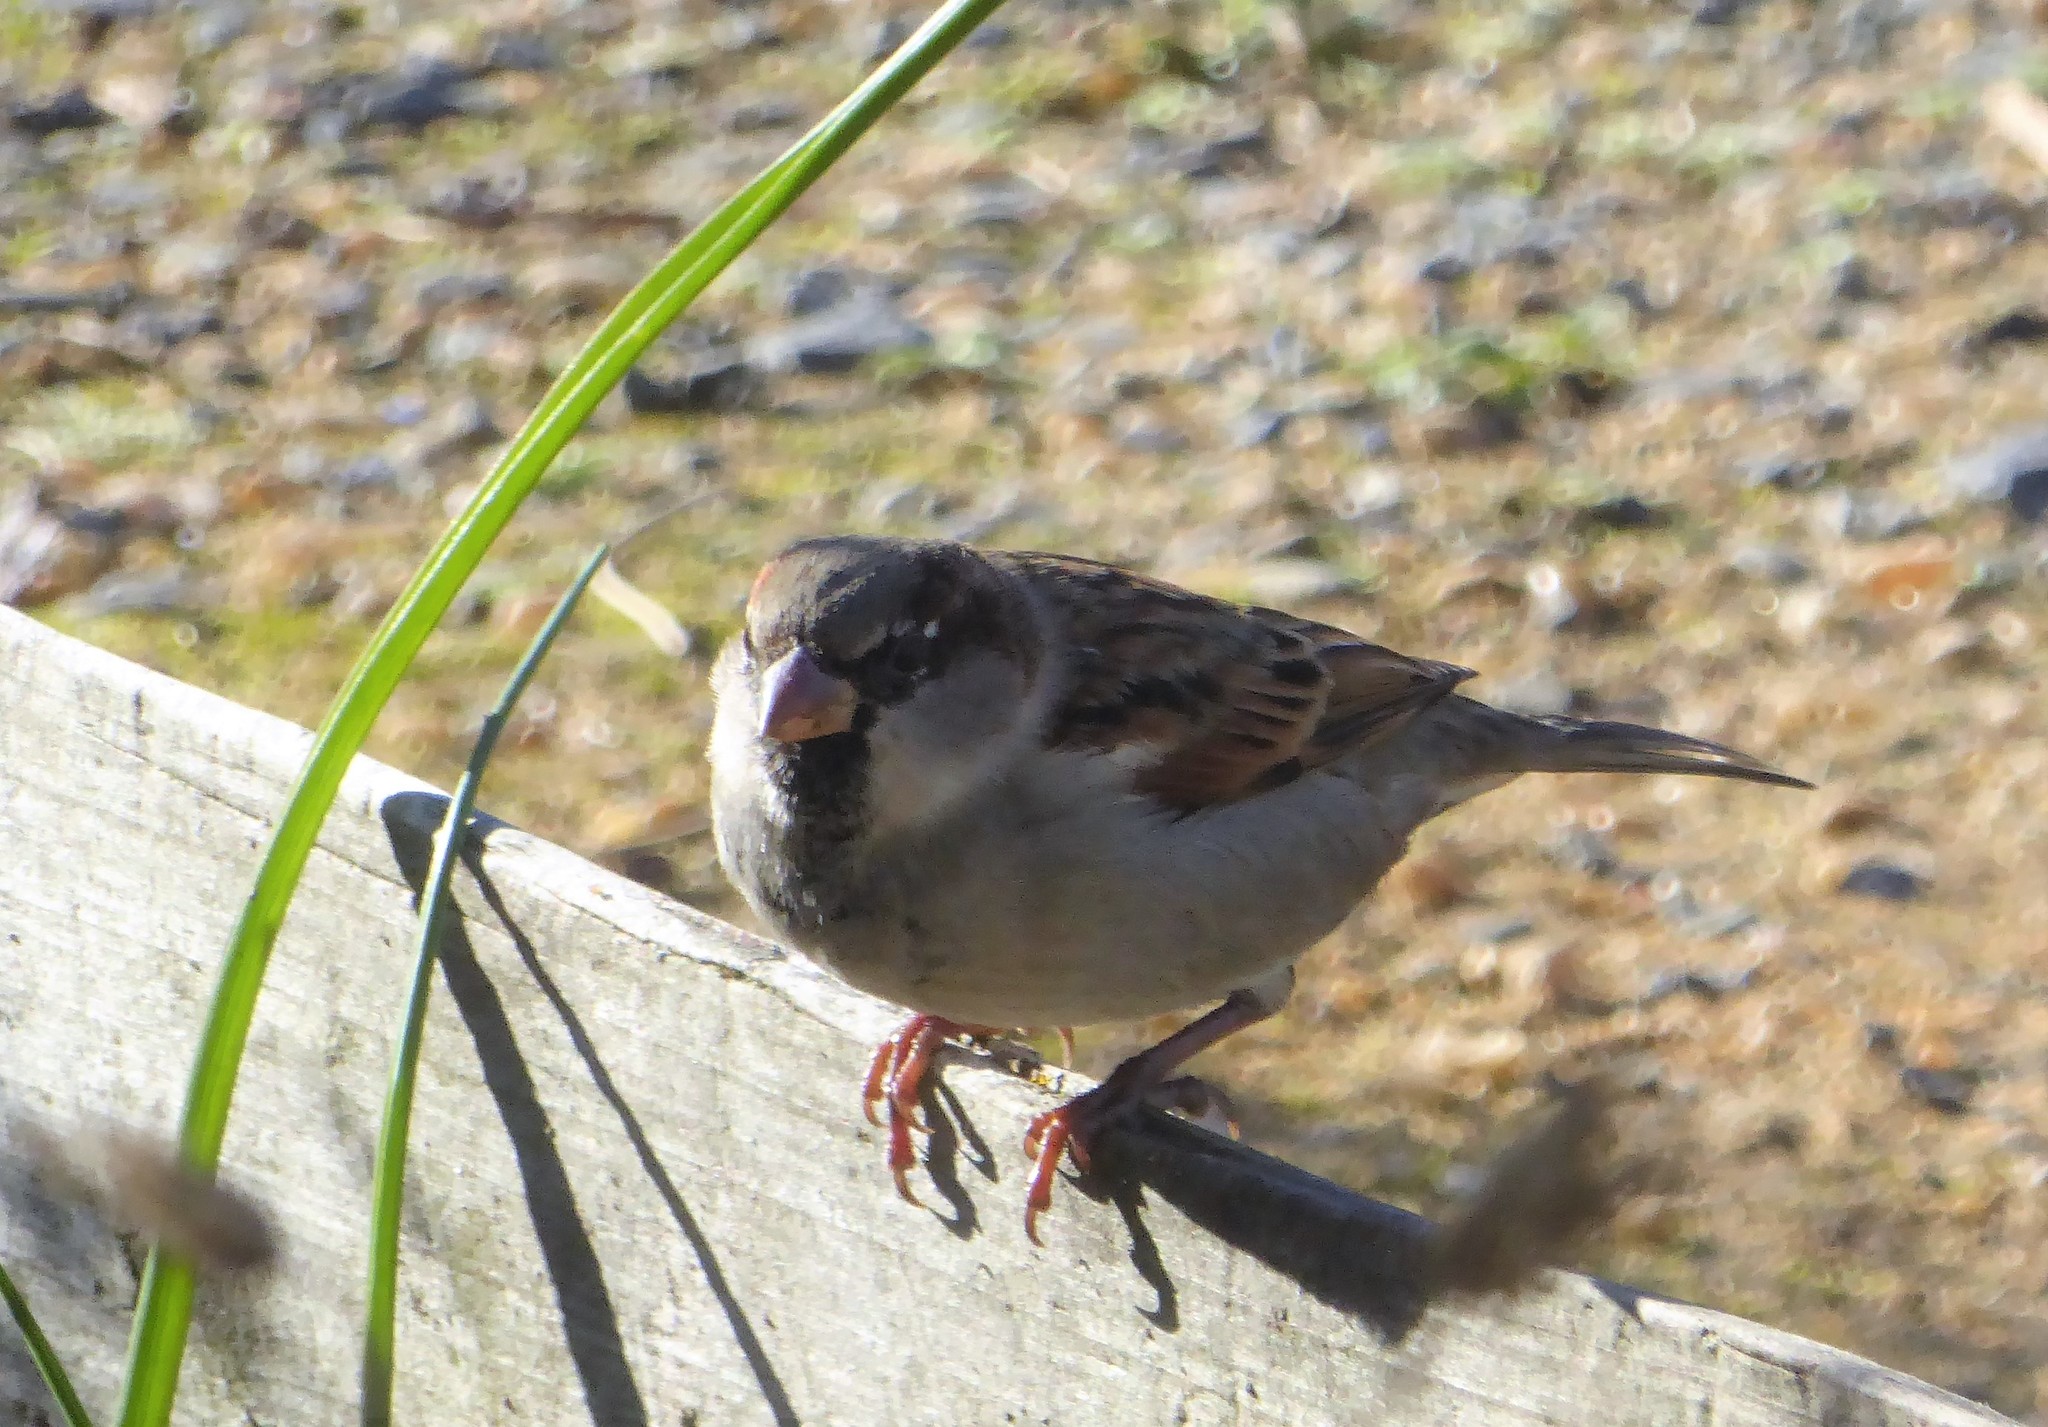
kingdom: Animalia
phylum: Chordata
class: Aves
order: Passeriformes
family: Passeridae
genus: Passer
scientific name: Passer domesticus
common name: House sparrow
